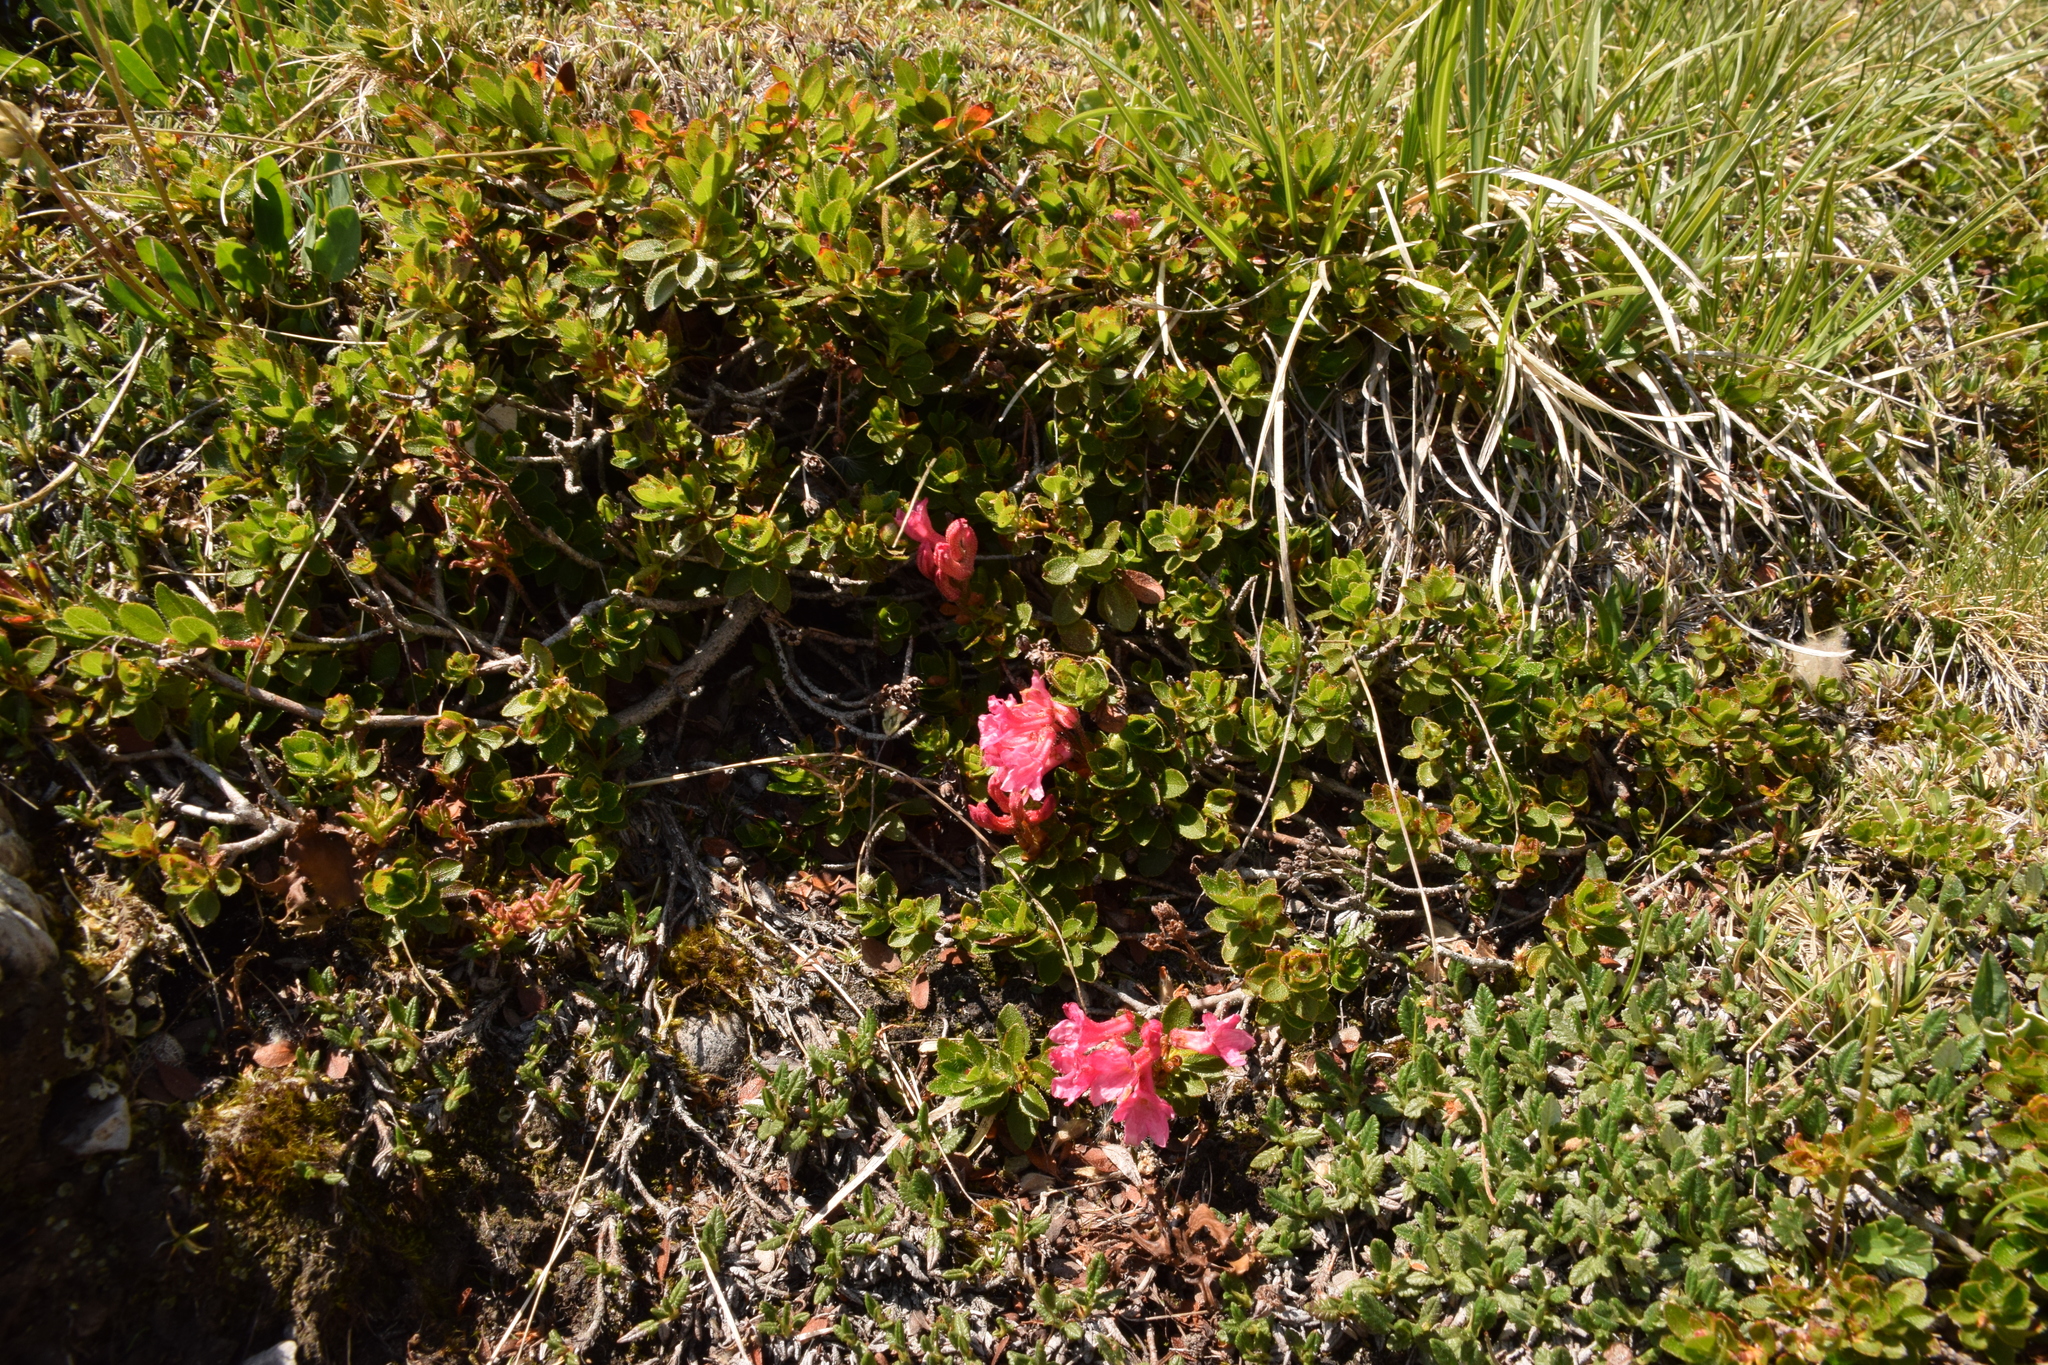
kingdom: Plantae
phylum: Tracheophyta
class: Magnoliopsida
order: Ericales
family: Ericaceae
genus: Rhododendron
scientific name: Rhododendron hirsutum
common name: Hairy alpenrose
